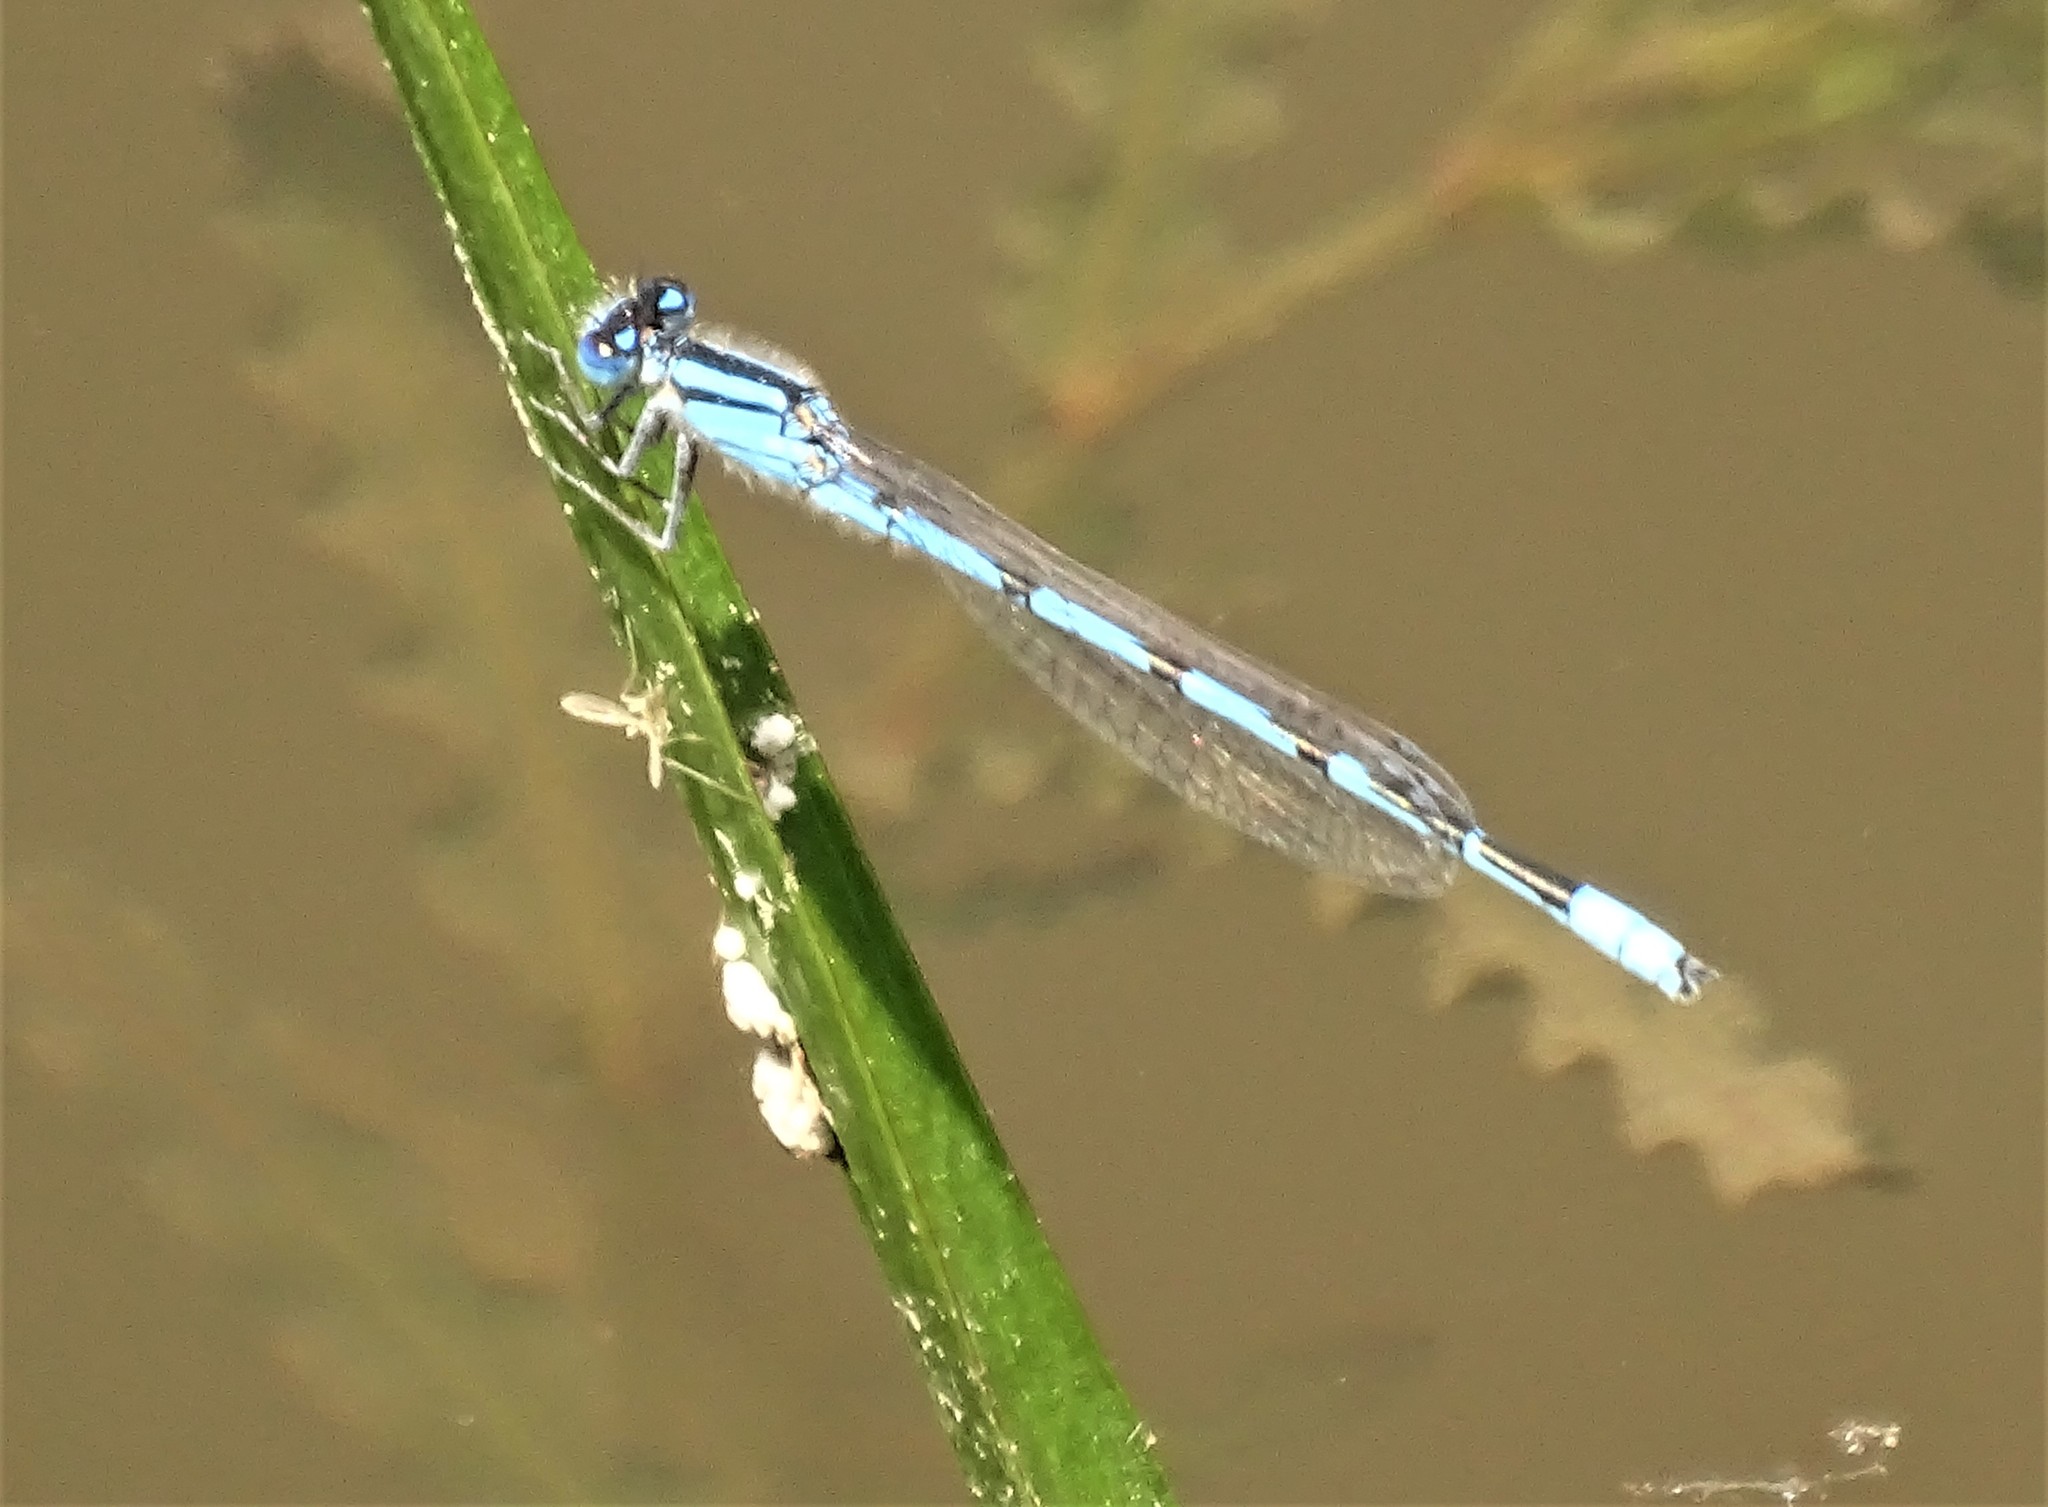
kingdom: Animalia
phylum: Arthropoda
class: Insecta
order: Odonata
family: Coenagrionidae
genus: Enallagma
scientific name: Enallagma civile
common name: Damselfly
